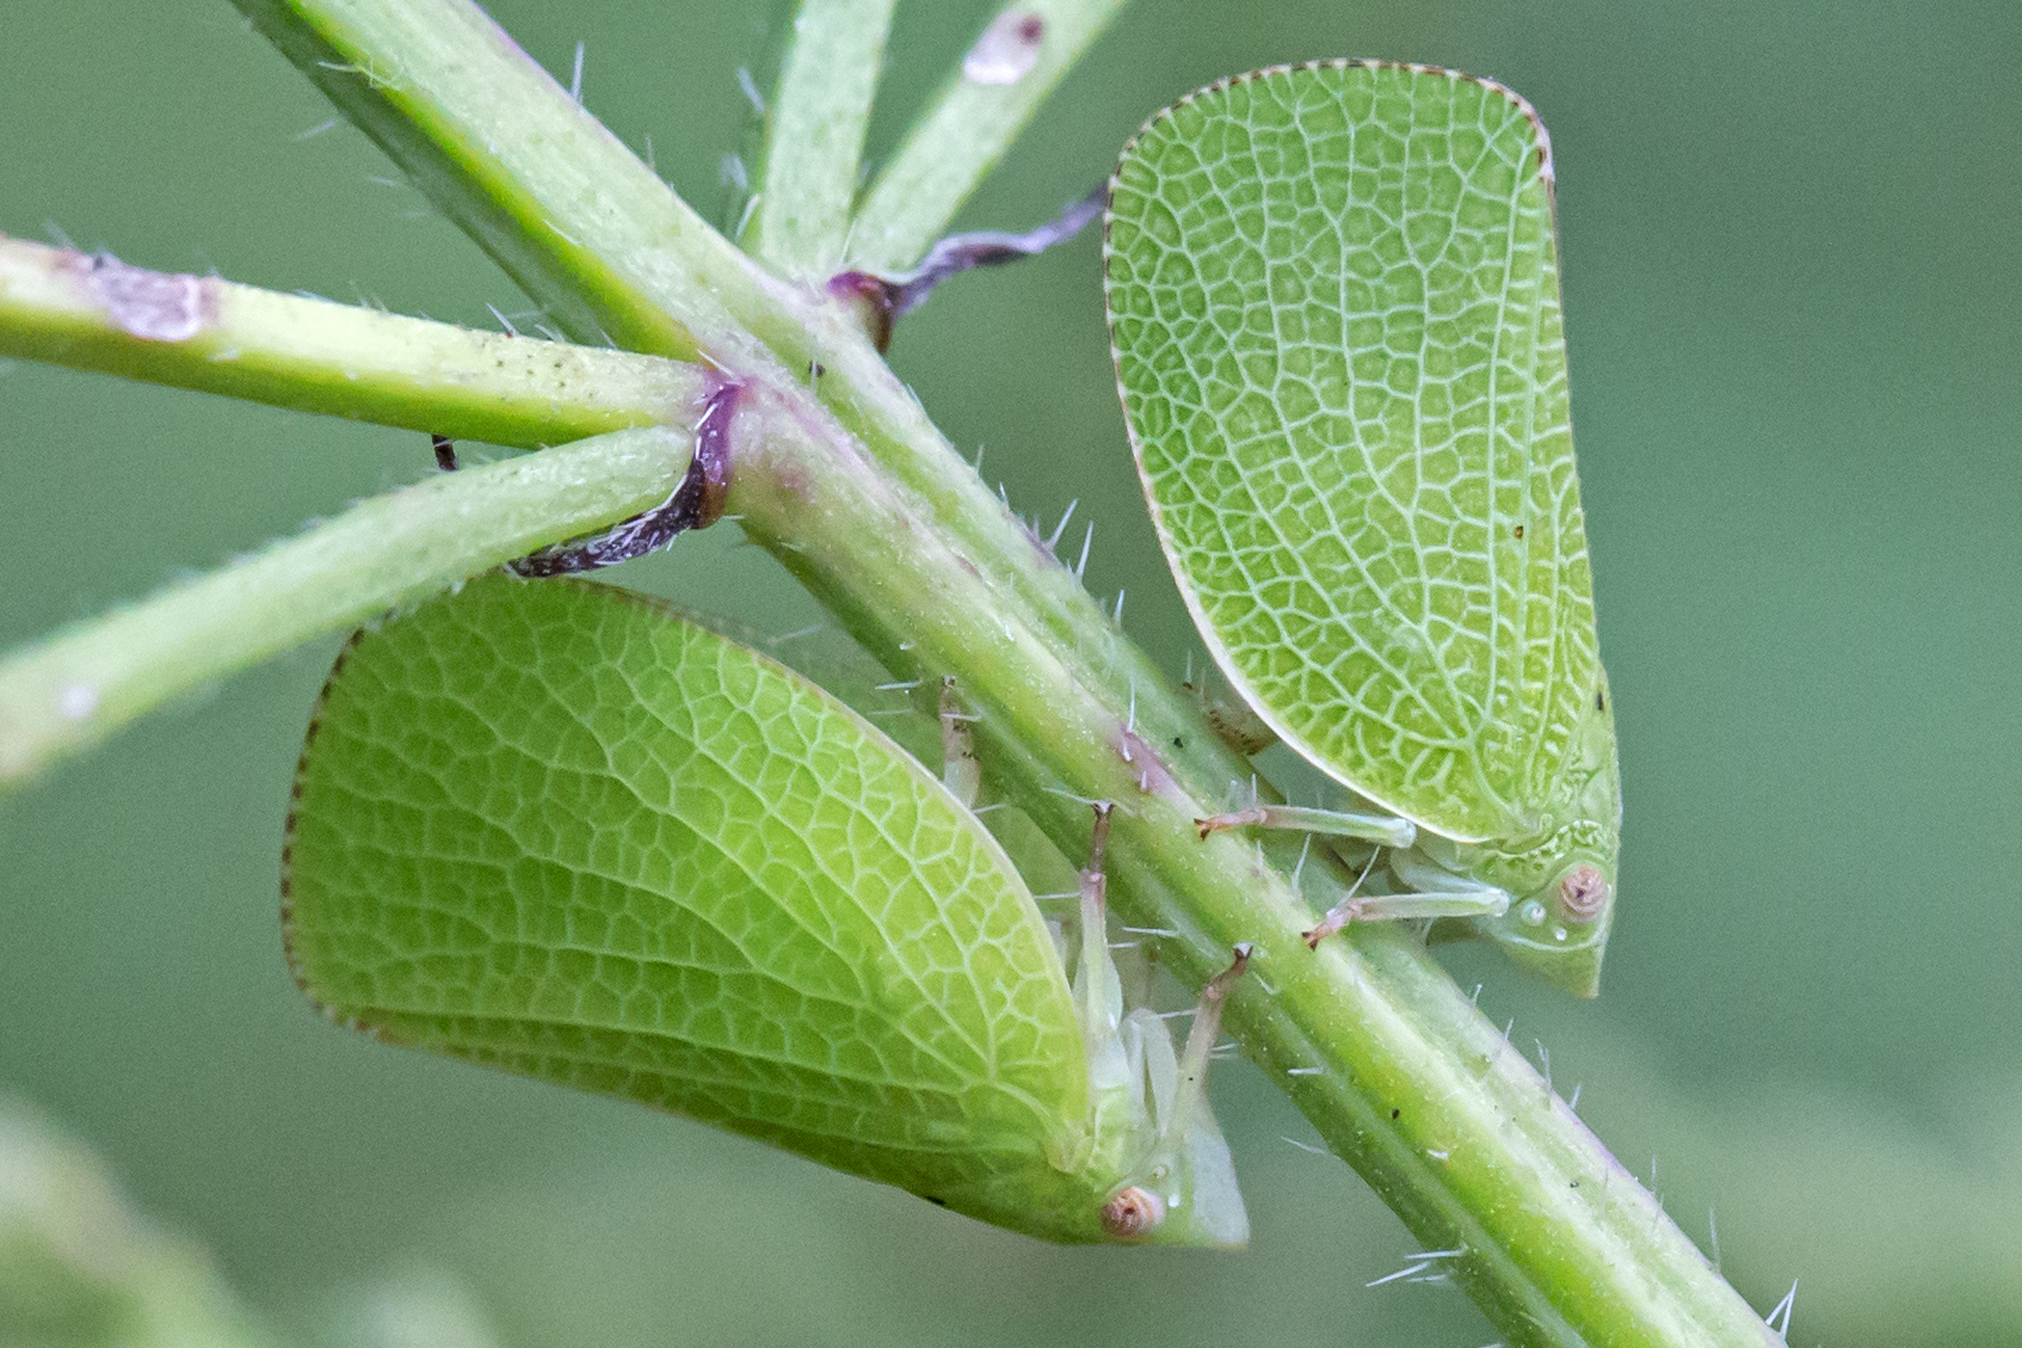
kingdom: Animalia
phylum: Arthropoda
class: Insecta
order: Hemiptera
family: Acanaloniidae
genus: Acanalonia
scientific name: Acanalonia conica
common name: Green cone-headed planthopper
